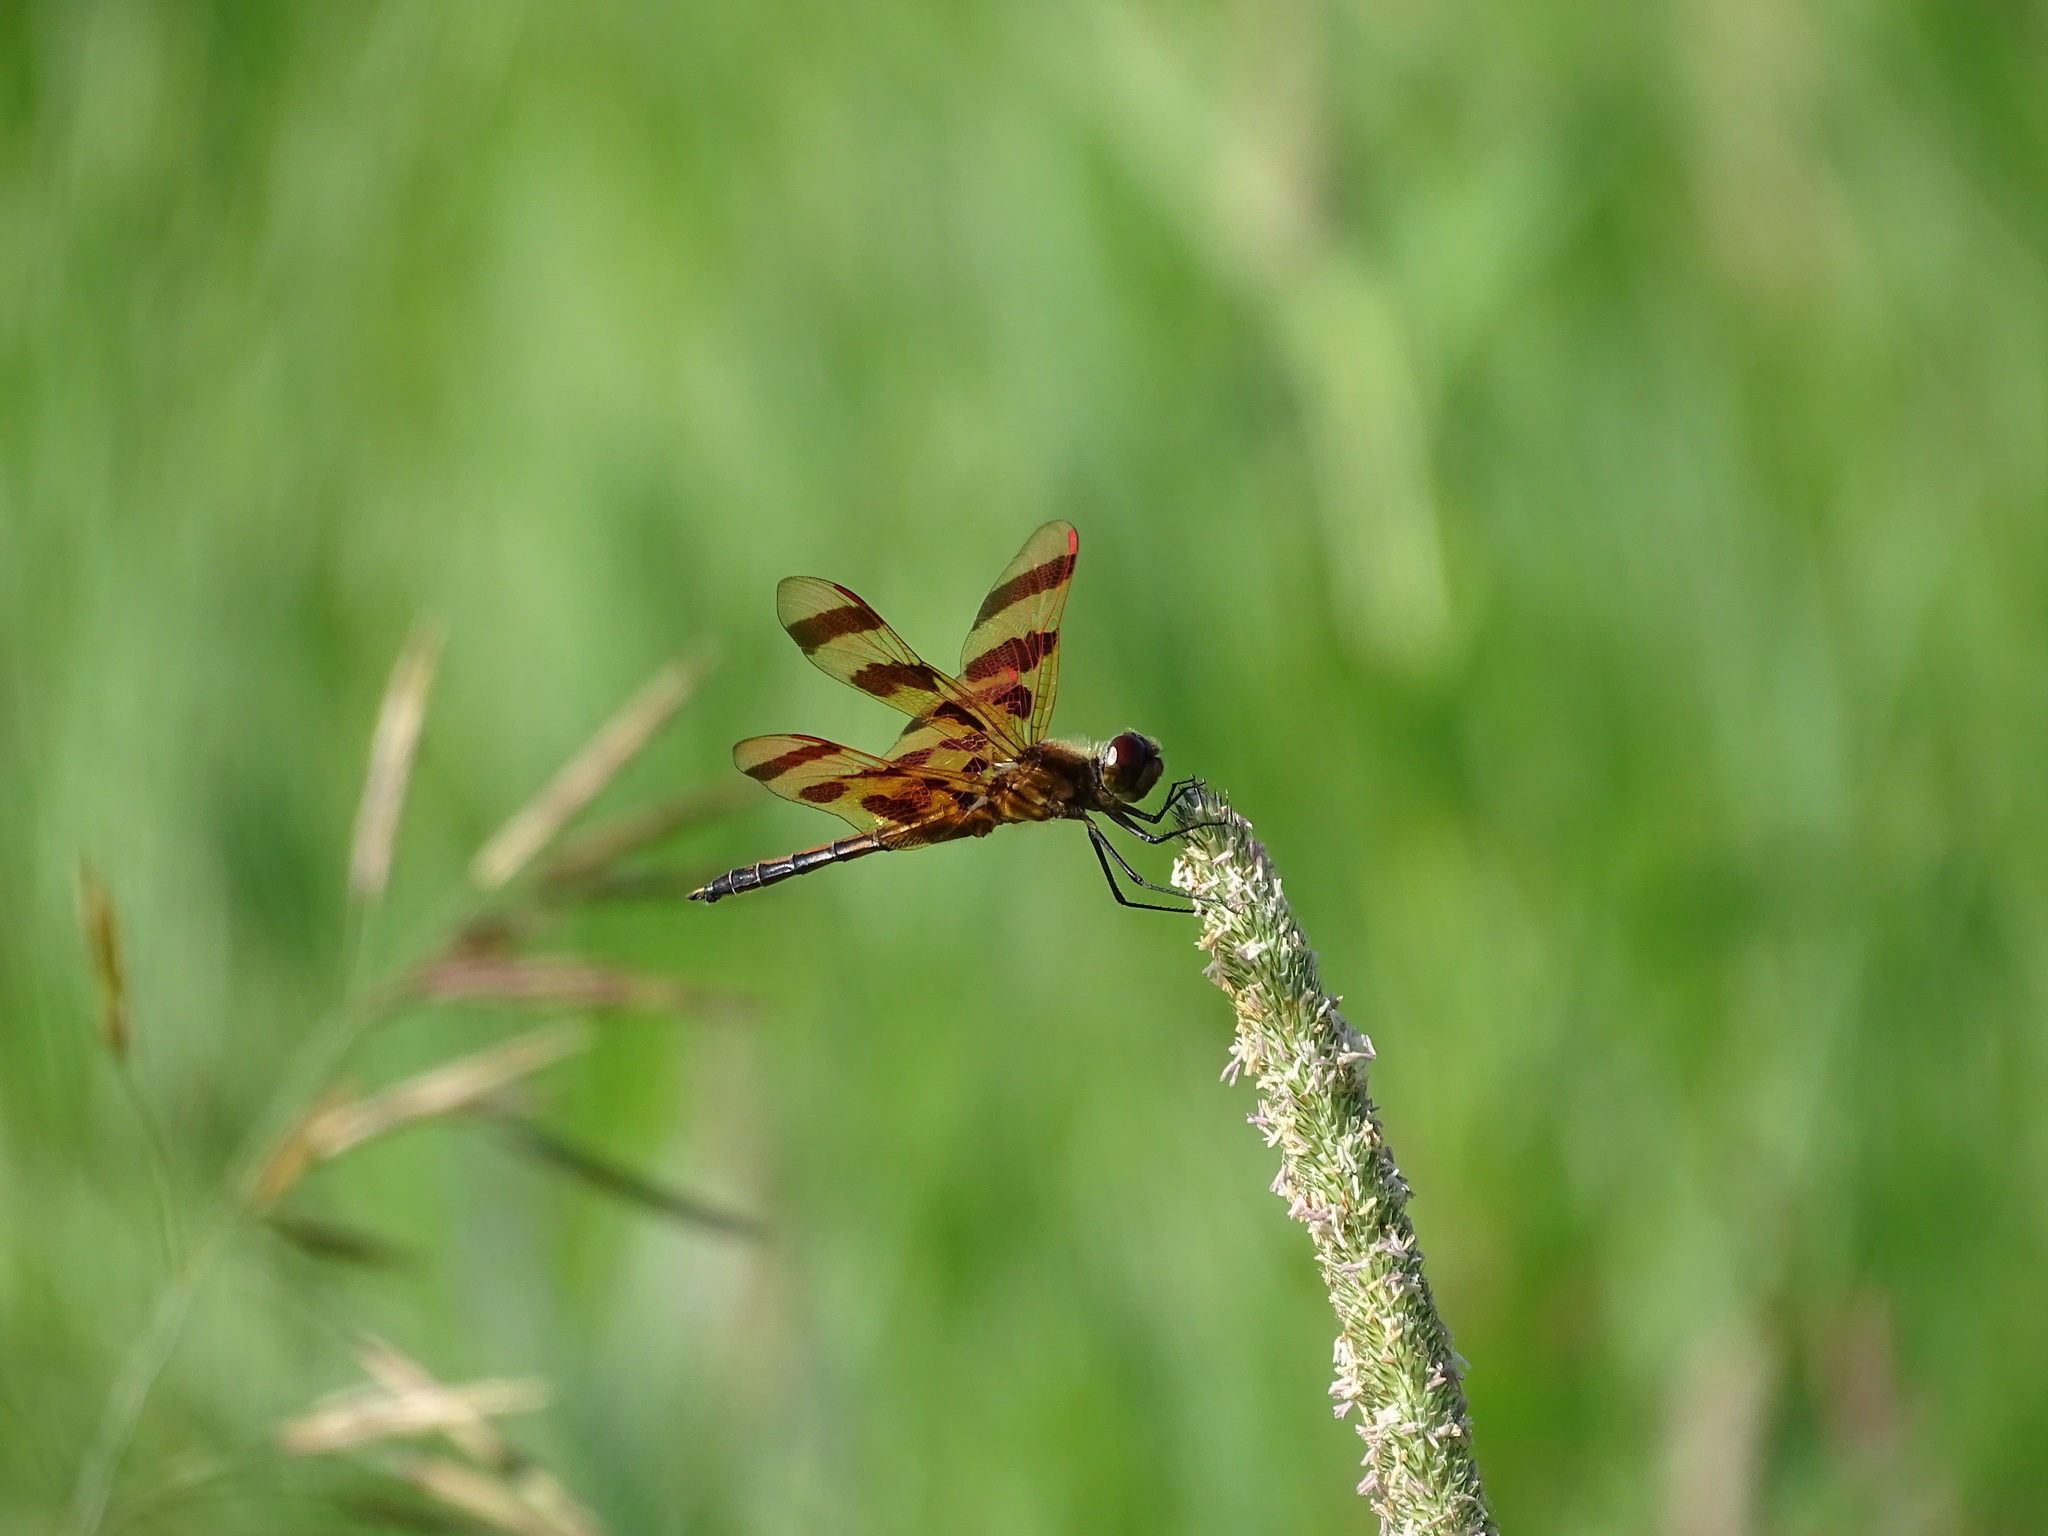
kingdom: Animalia
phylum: Arthropoda
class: Insecta
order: Odonata
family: Libellulidae
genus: Celithemis
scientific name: Celithemis eponina
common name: Halloween pennant
